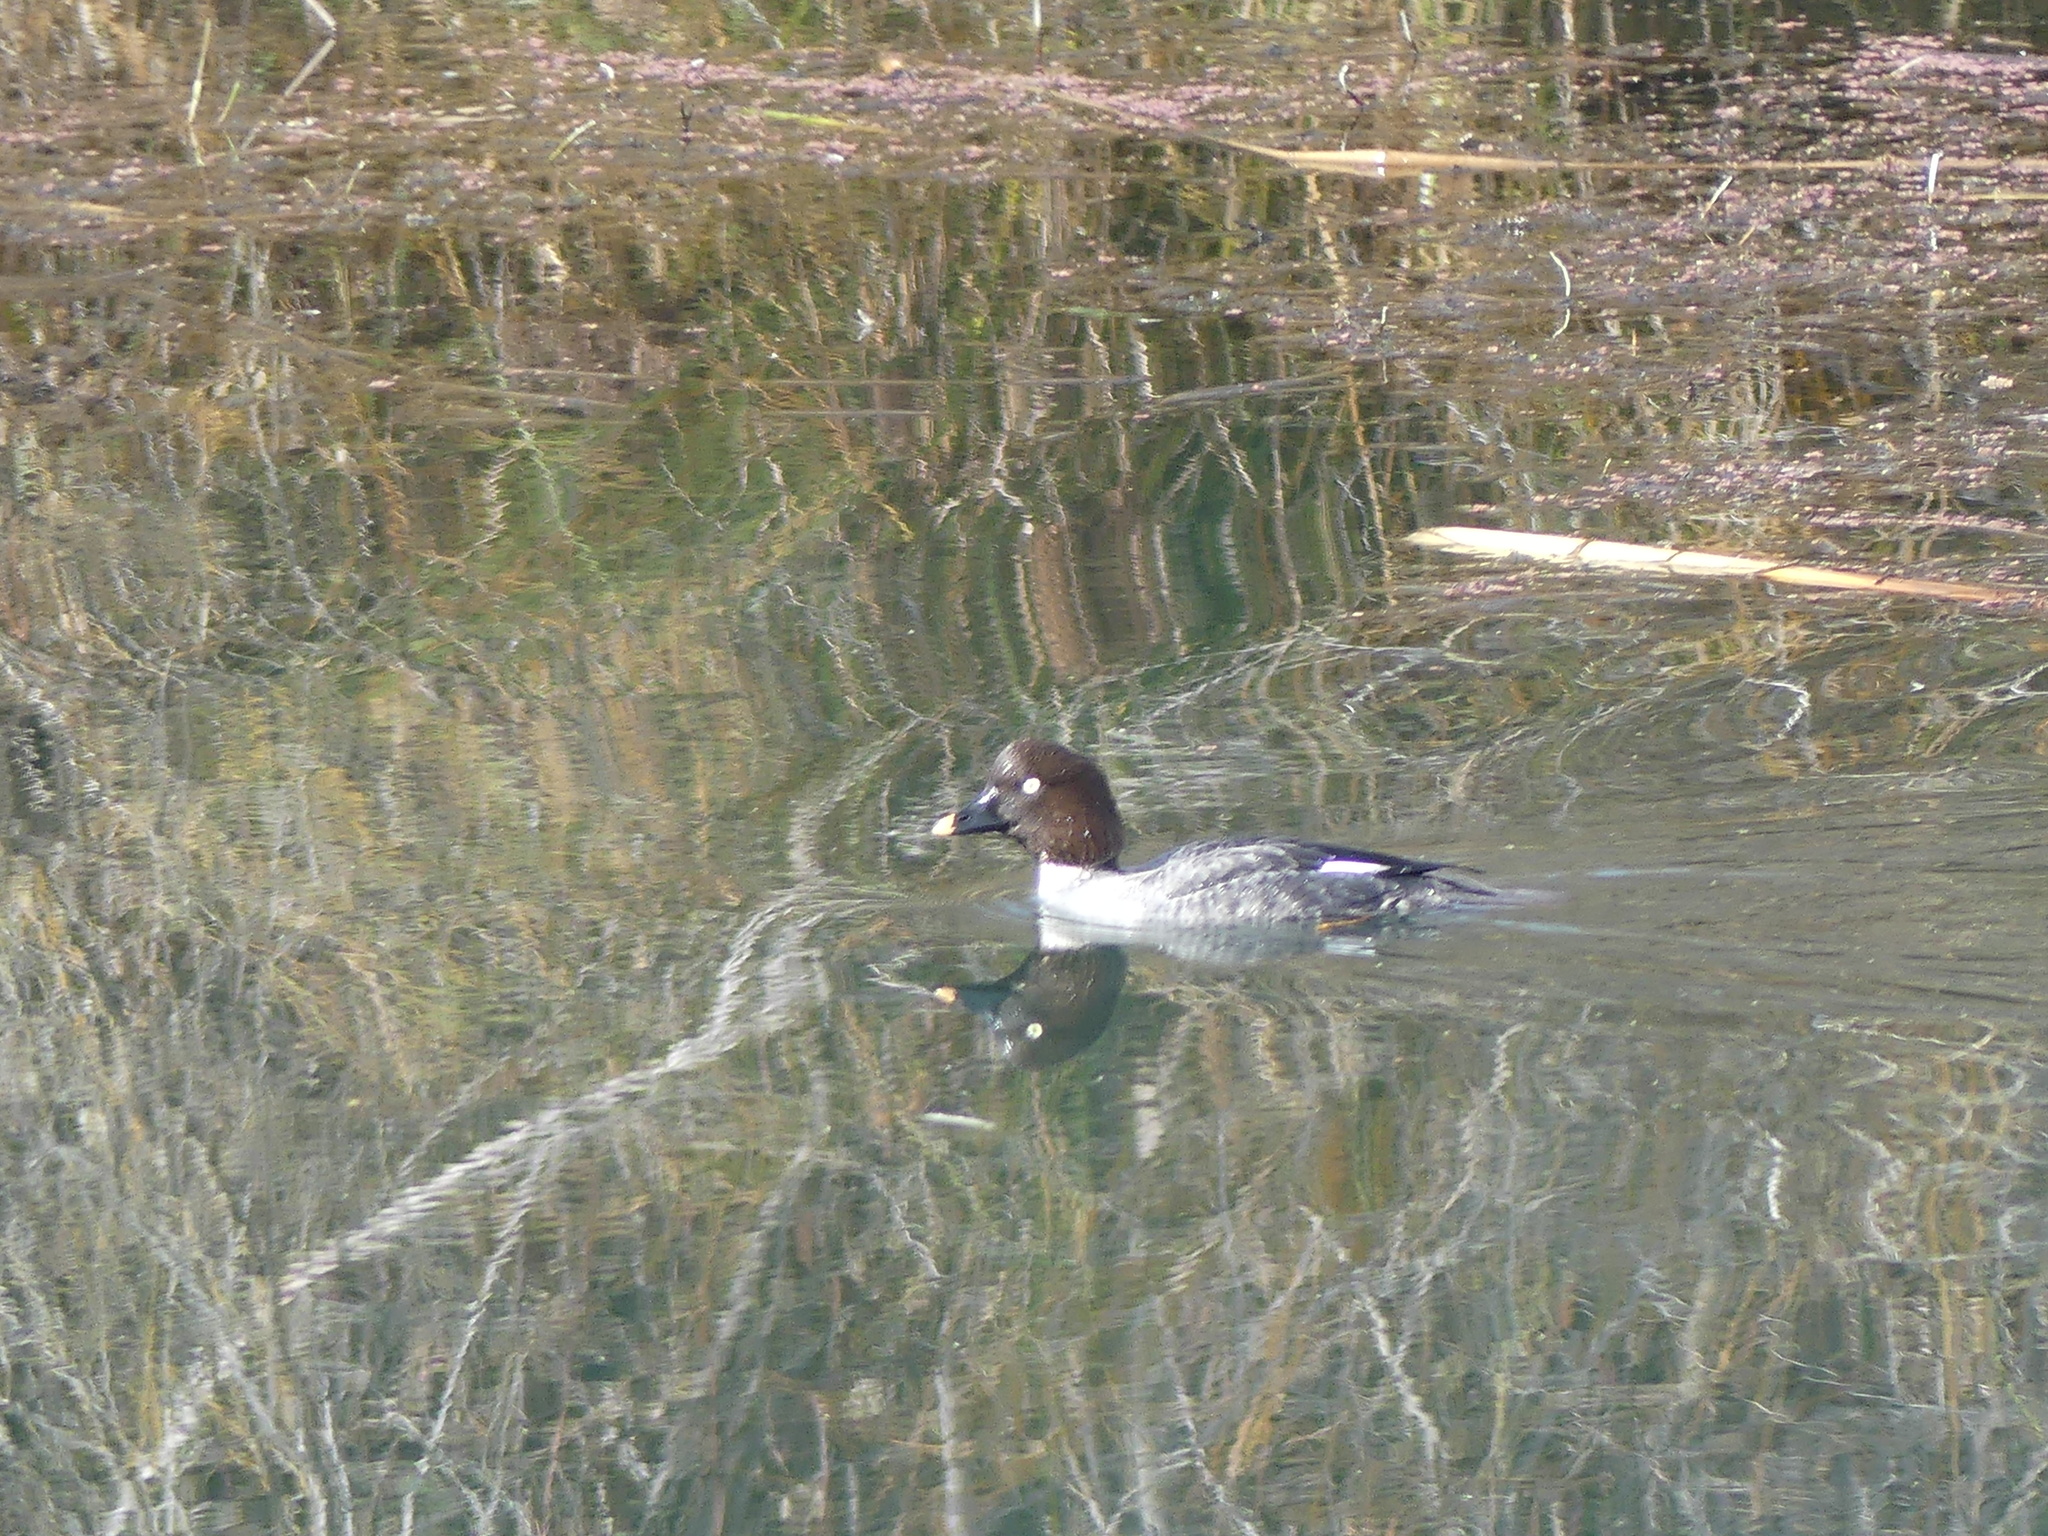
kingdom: Animalia
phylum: Chordata
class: Aves
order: Anseriformes
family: Anatidae
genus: Bucephala
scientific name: Bucephala clangula
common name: Common goldeneye
